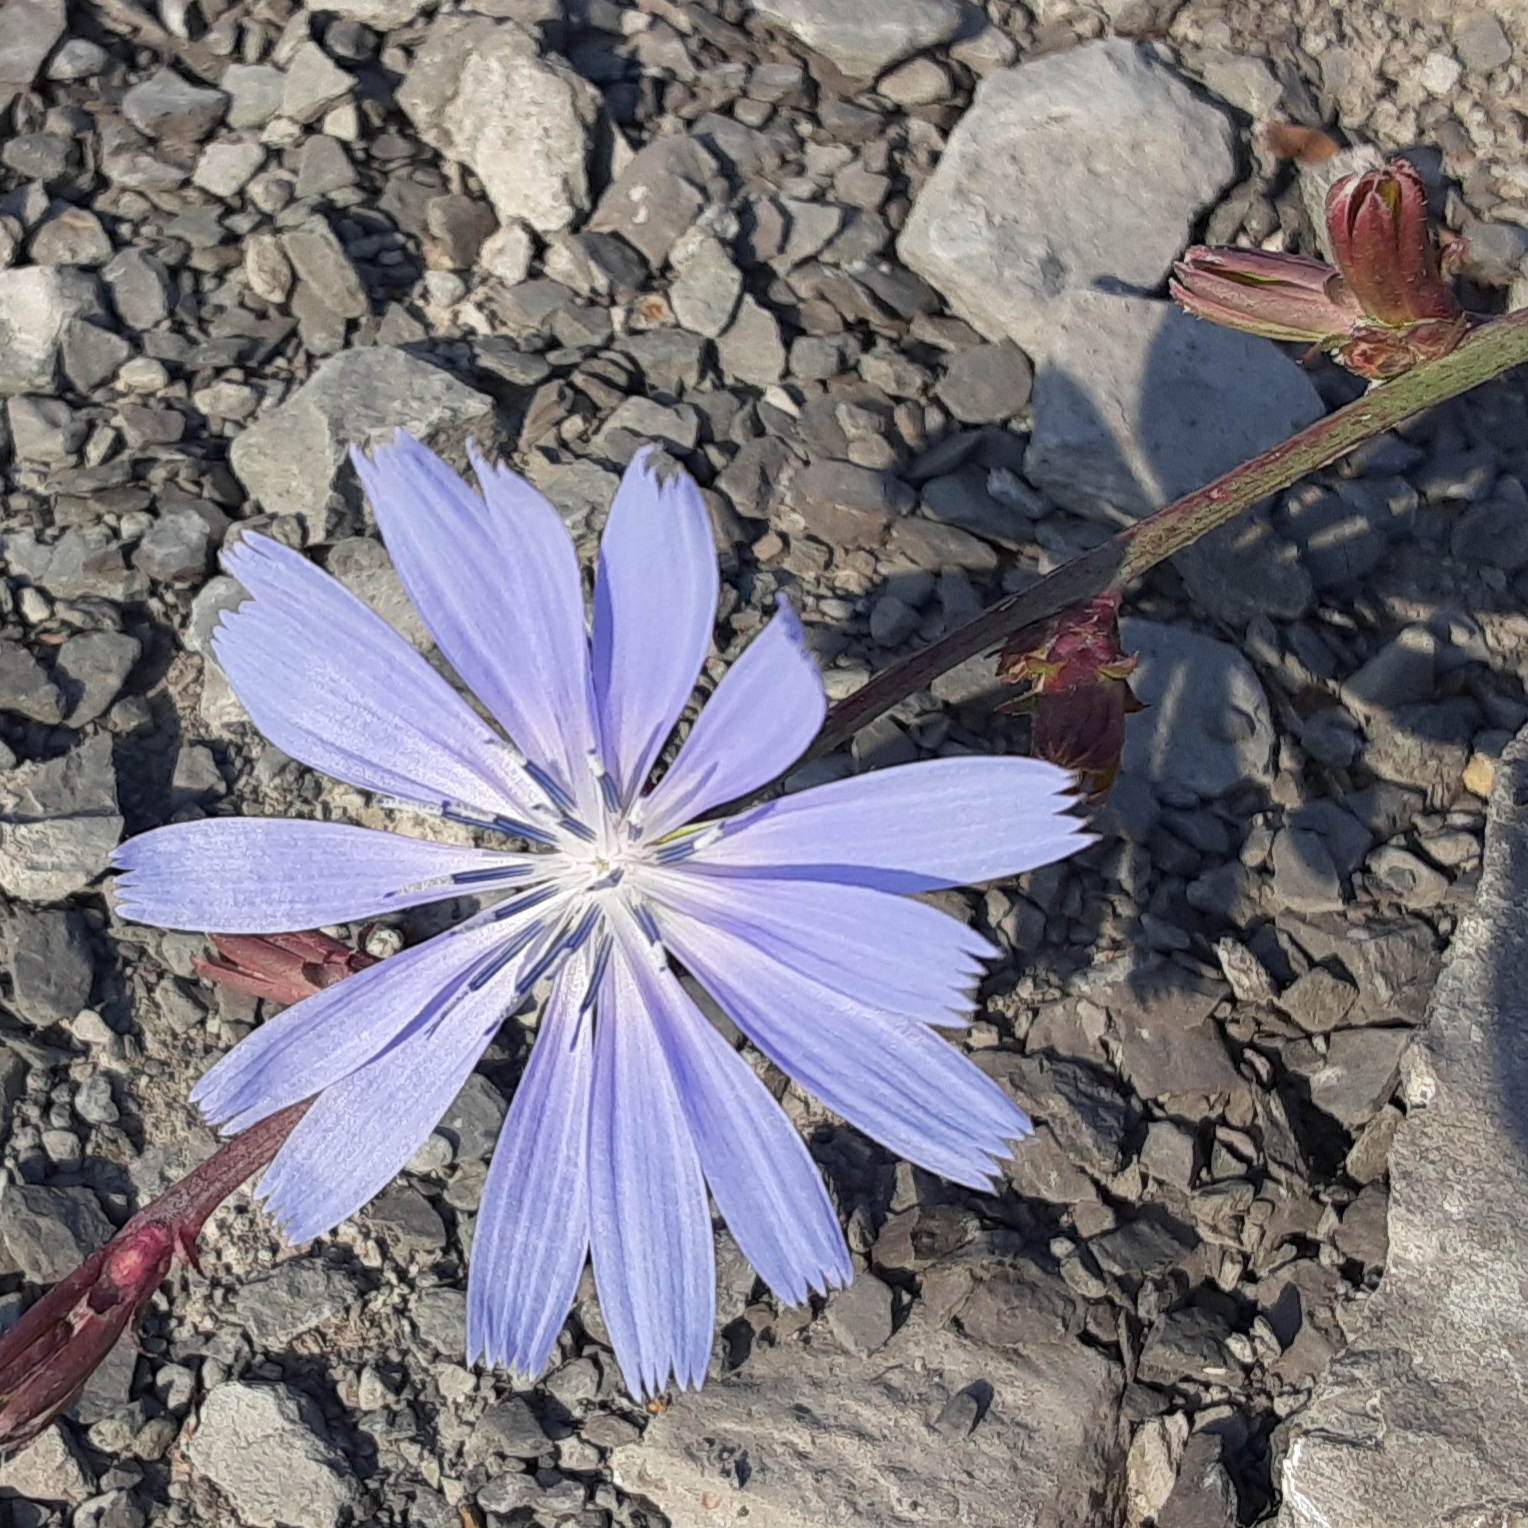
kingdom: Plantae
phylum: Tracheophyta
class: Magnoliopsida
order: Asterales
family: Asteraceae
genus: Cichorium
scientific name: Cichorium intybus
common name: Chicory
